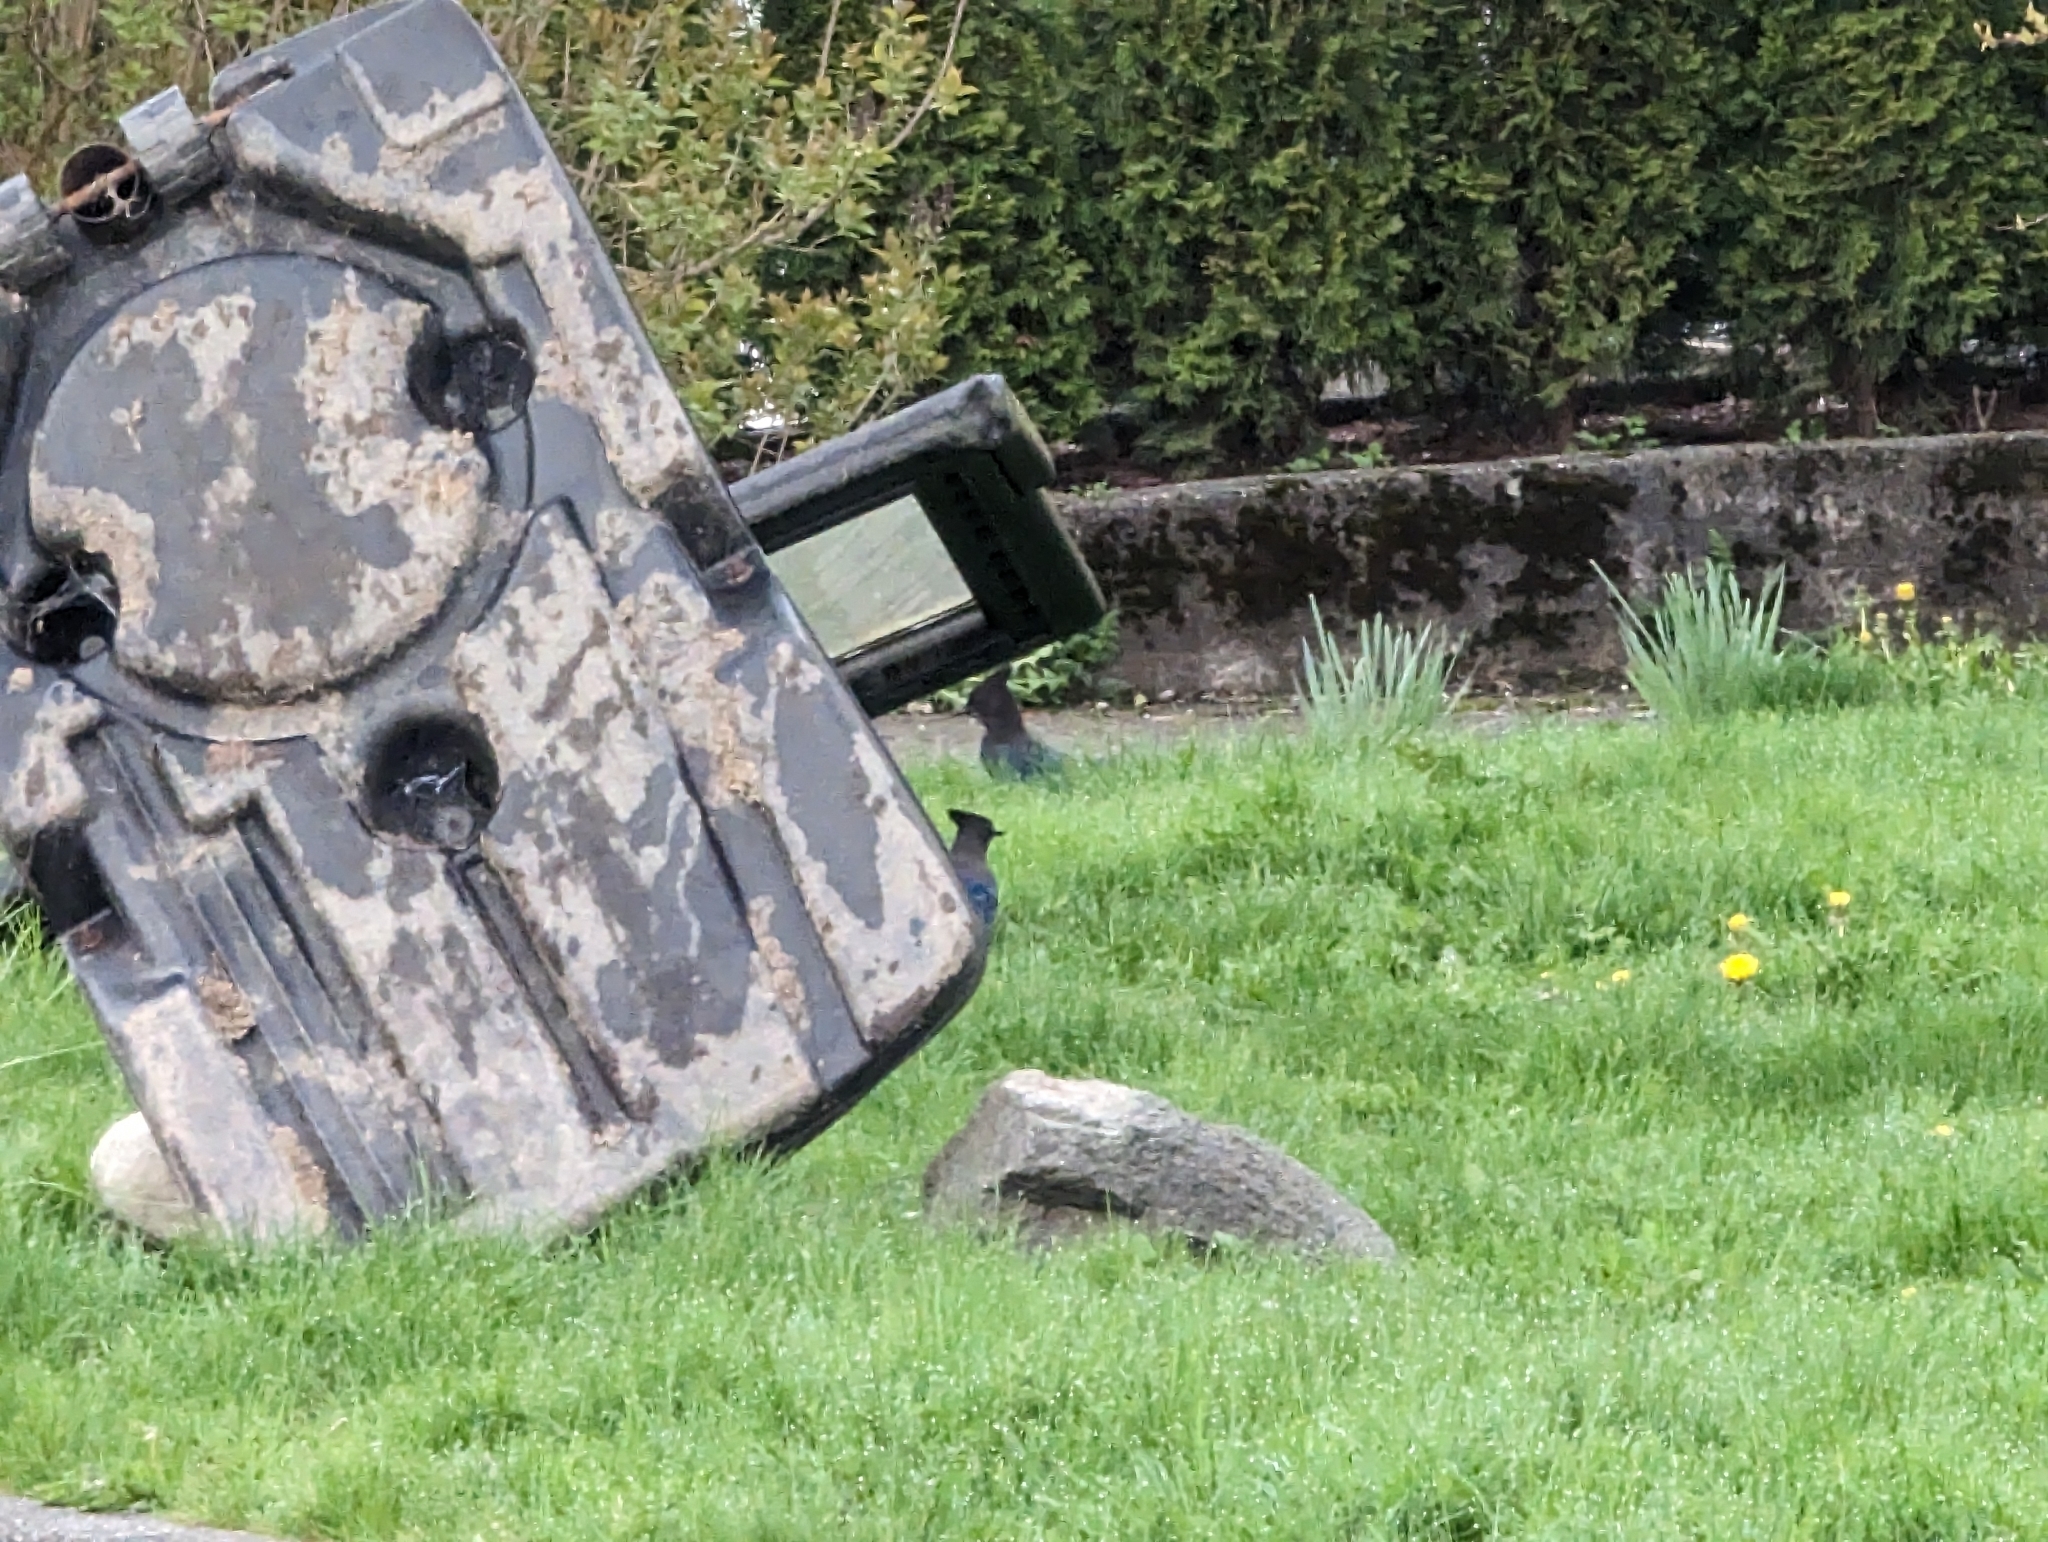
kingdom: Animalia
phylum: Chordata
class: Aves
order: Passeriformes
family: Corvidae
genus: Cyanocitta
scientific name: Cyanocitta stelleri
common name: Steller's jay
